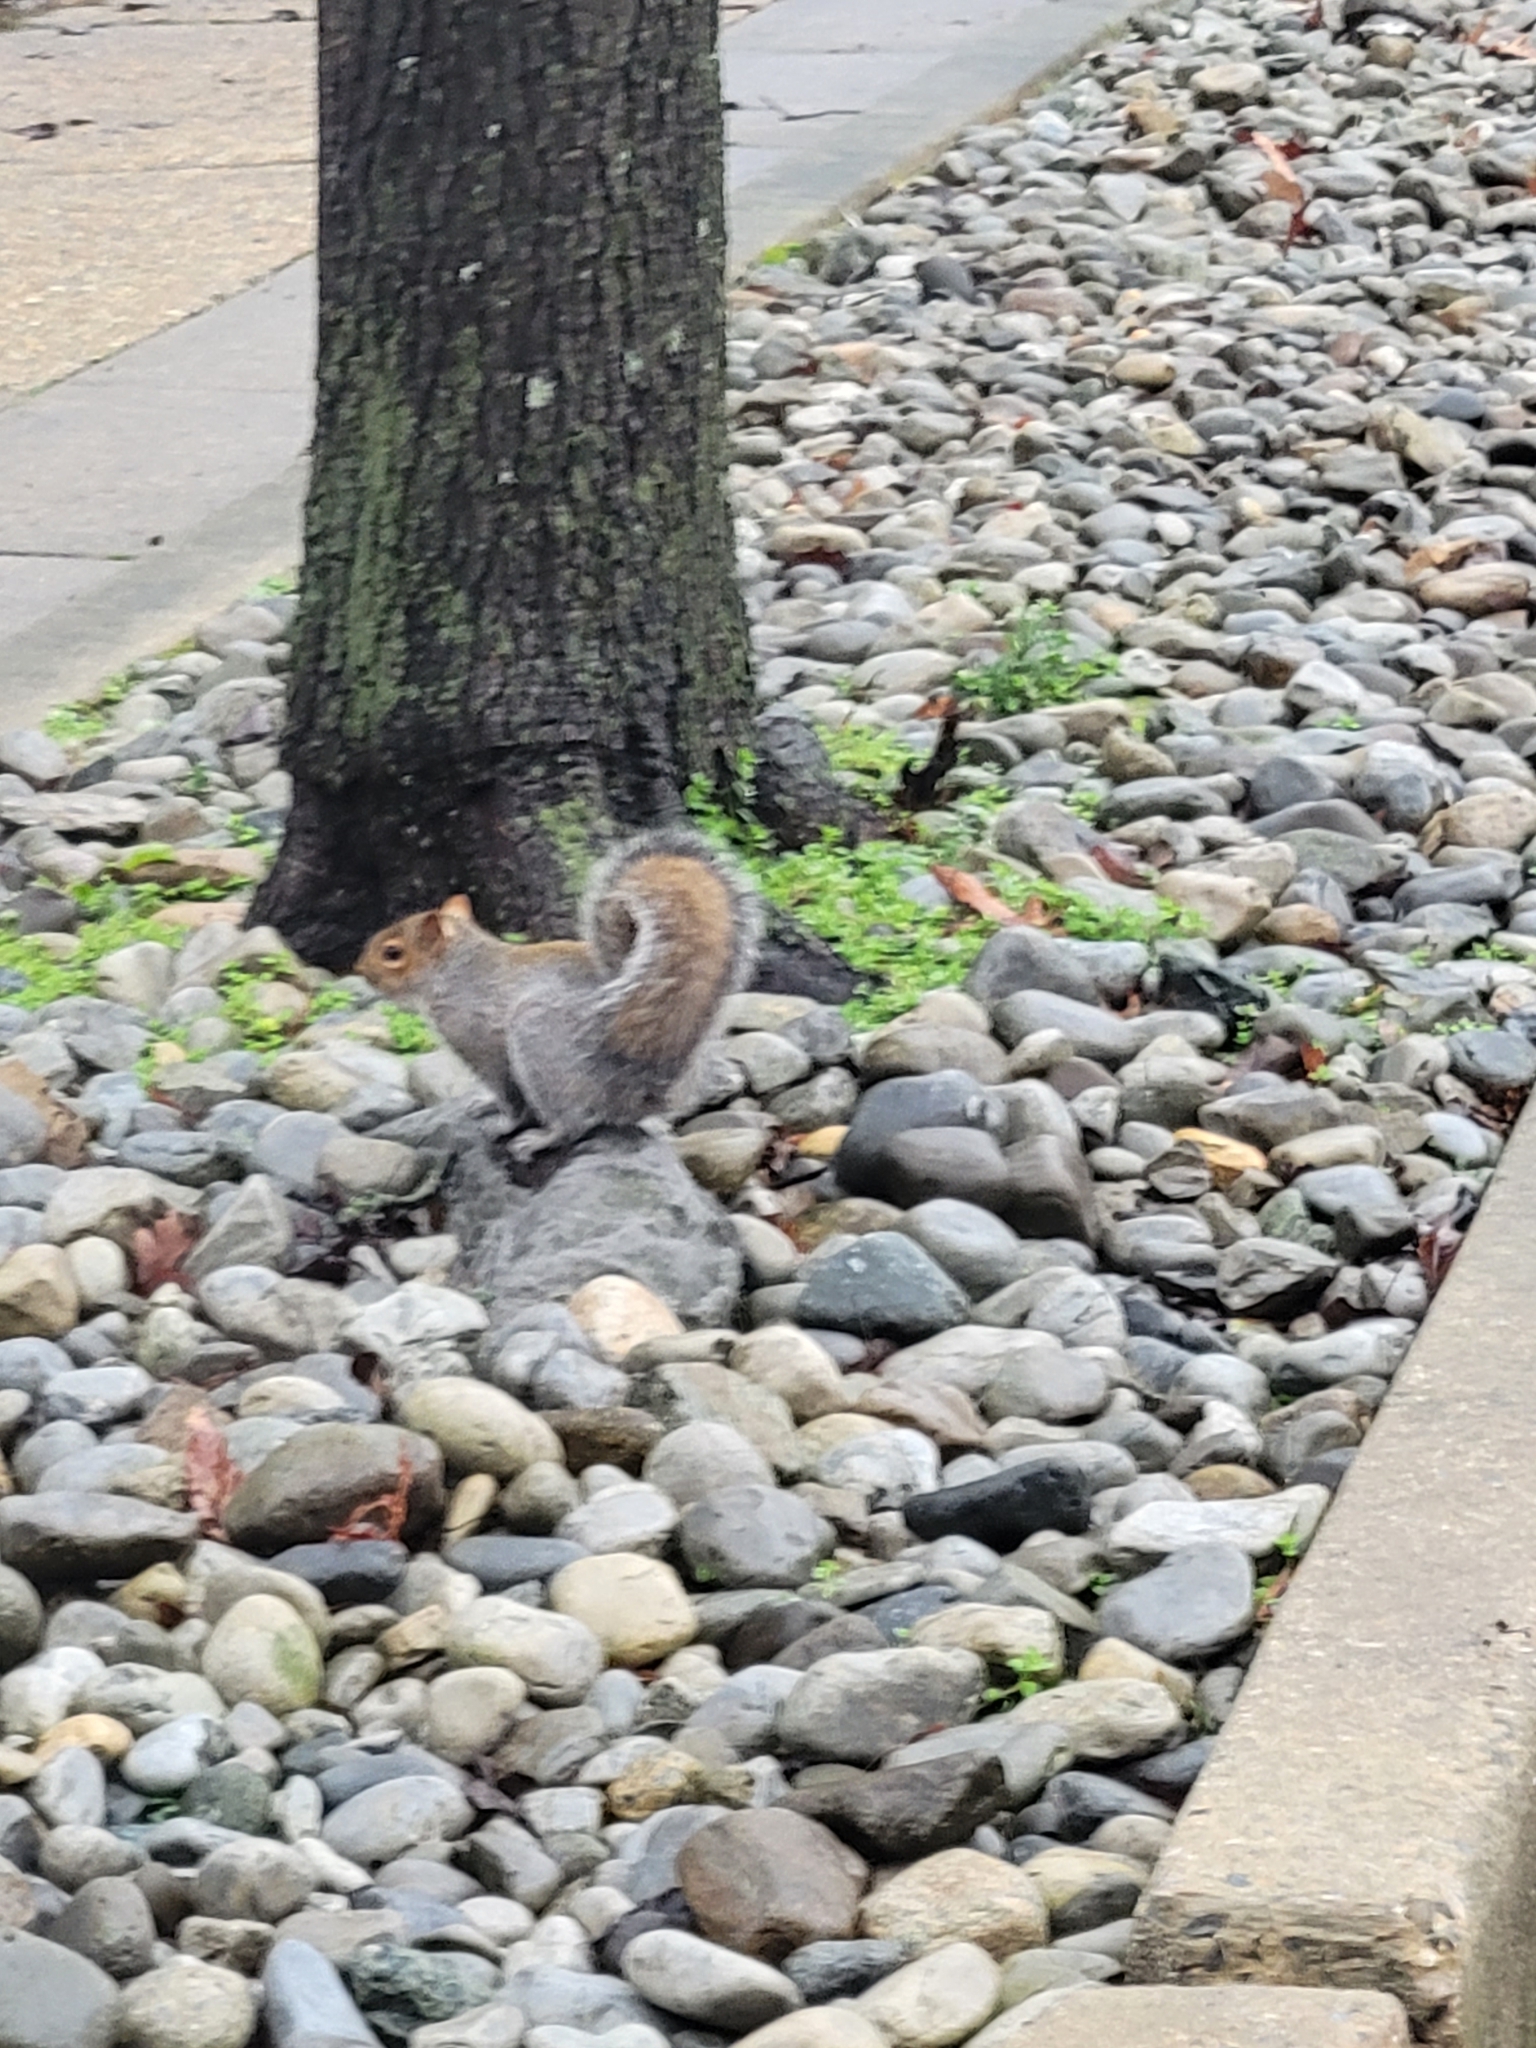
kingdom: Animalia
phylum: Chordata
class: Mammalia
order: Rodentia
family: Sciuridae
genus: Sciurus
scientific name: Sciurus carolinensis
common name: Eastern gray squirrel
